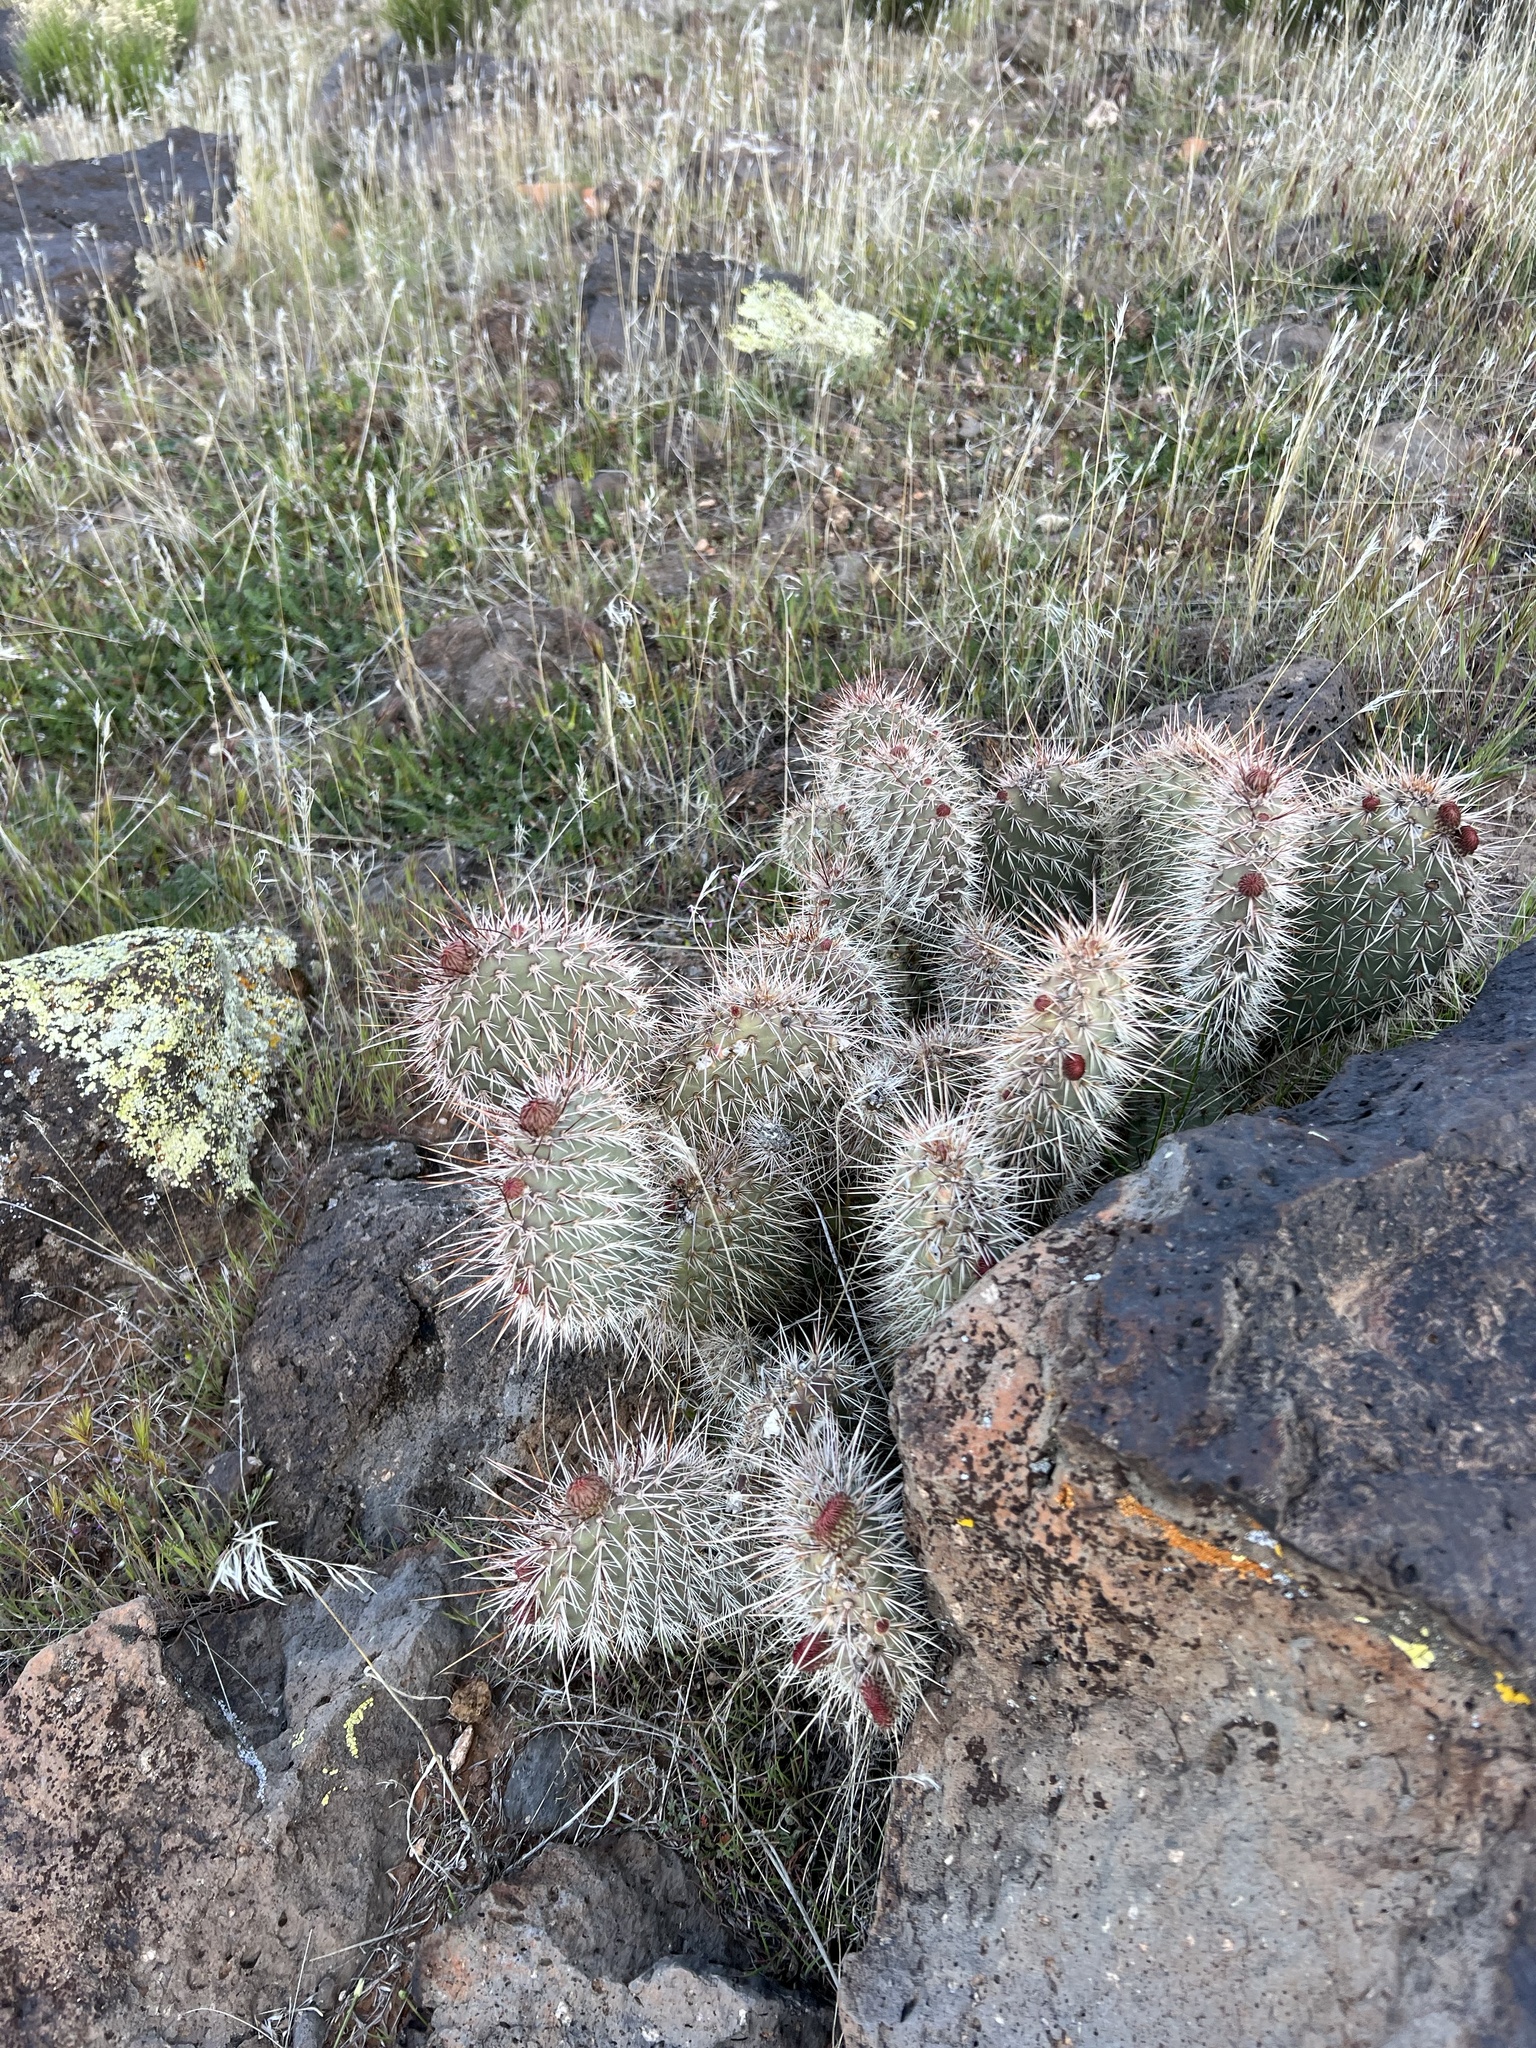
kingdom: Plantae
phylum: Tracheophyta
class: Magnoliopsida
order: Caryophyllales
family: Cactaceae
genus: Opuntia
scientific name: Opuntia polyacantha
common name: Plains prickly-pear
